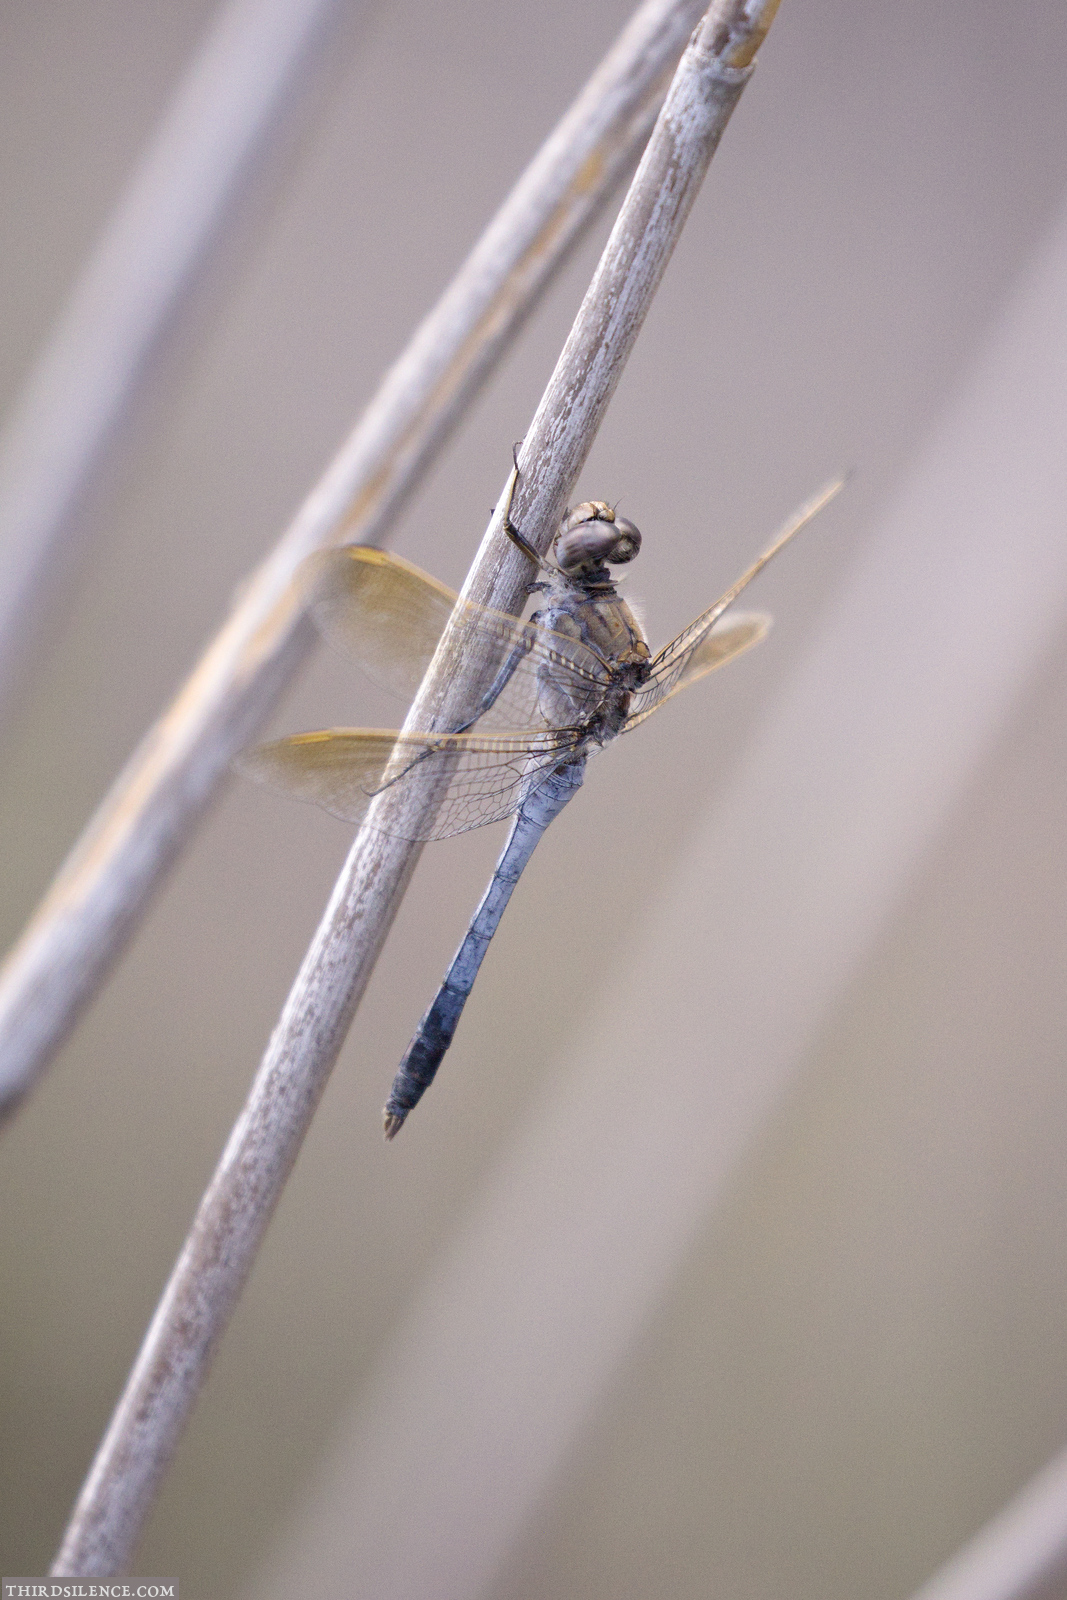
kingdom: Animalia
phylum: Arthropoda
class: Insecta
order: Odonata
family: Libellulidae
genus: Orthetrum
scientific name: Orthetrum caledonicum
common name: Blue skimmer
